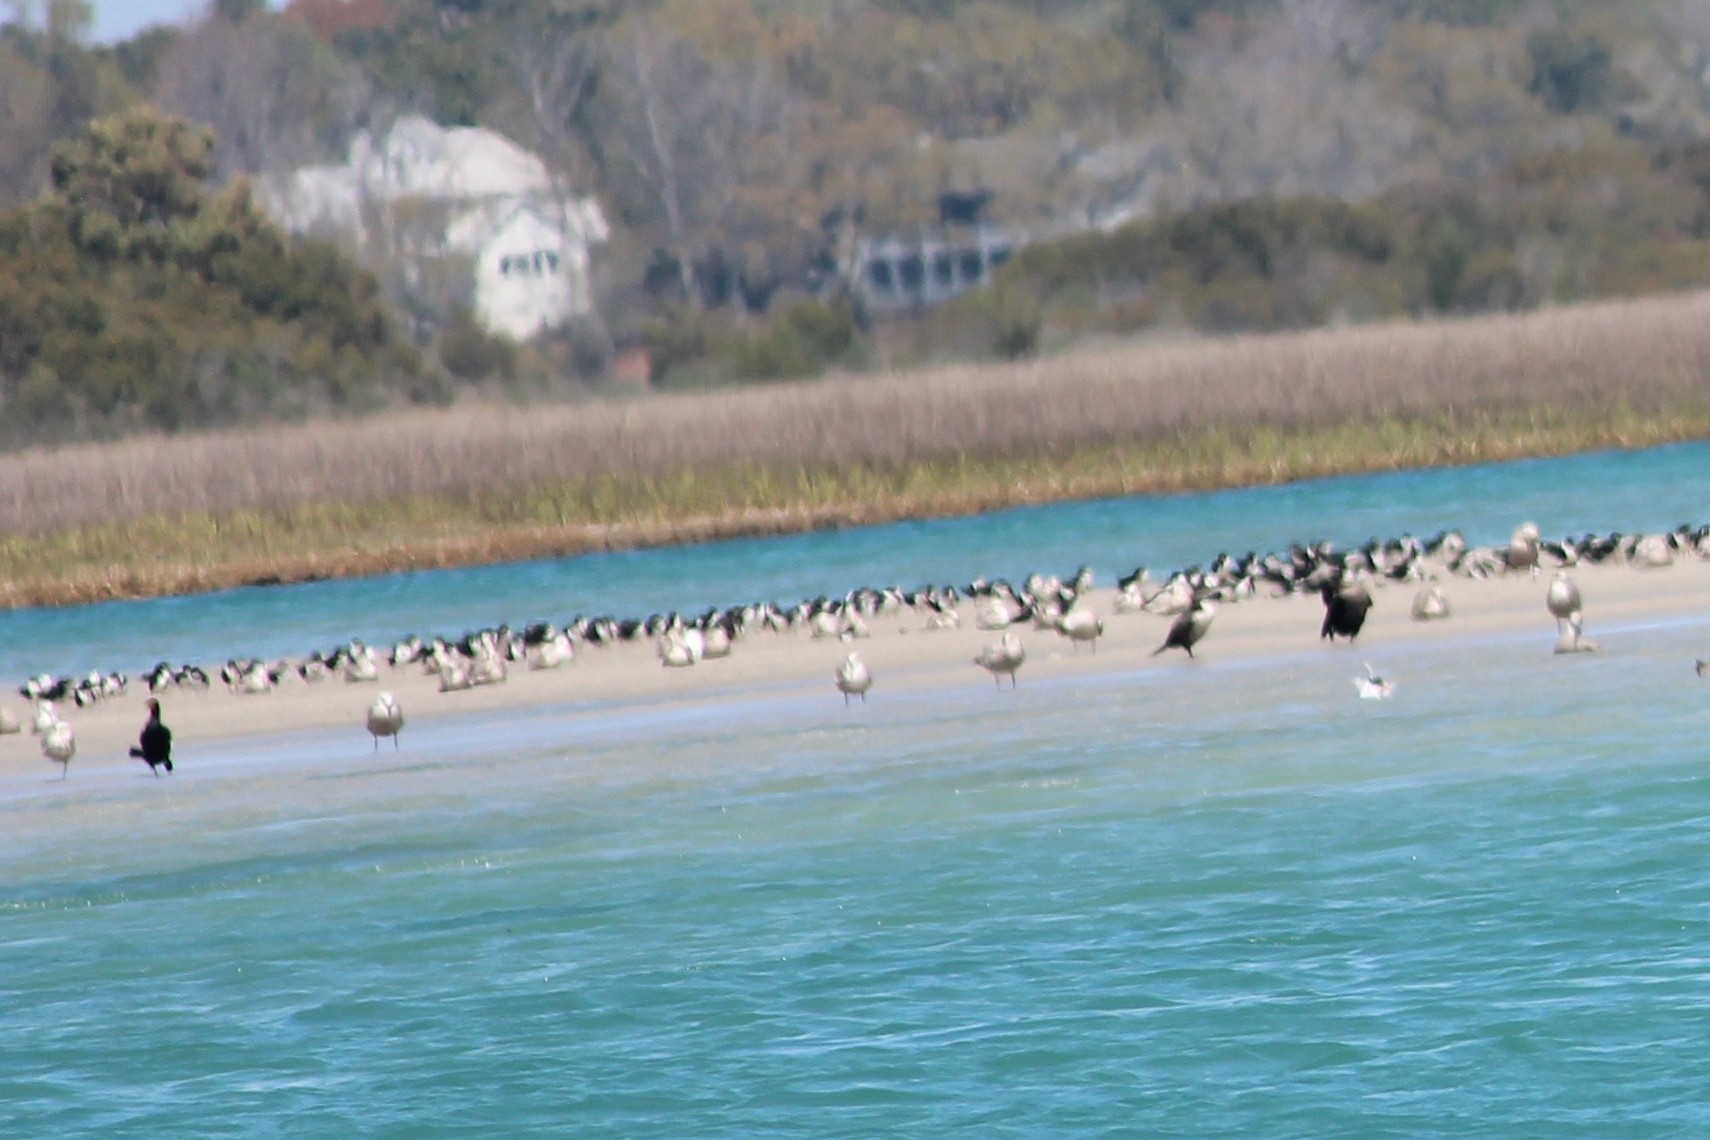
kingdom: Animalia
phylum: Chordata
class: Aves
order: Charadriiformes
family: Laridae
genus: Rynchops
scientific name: Rynchops niger
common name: Black skimmer
